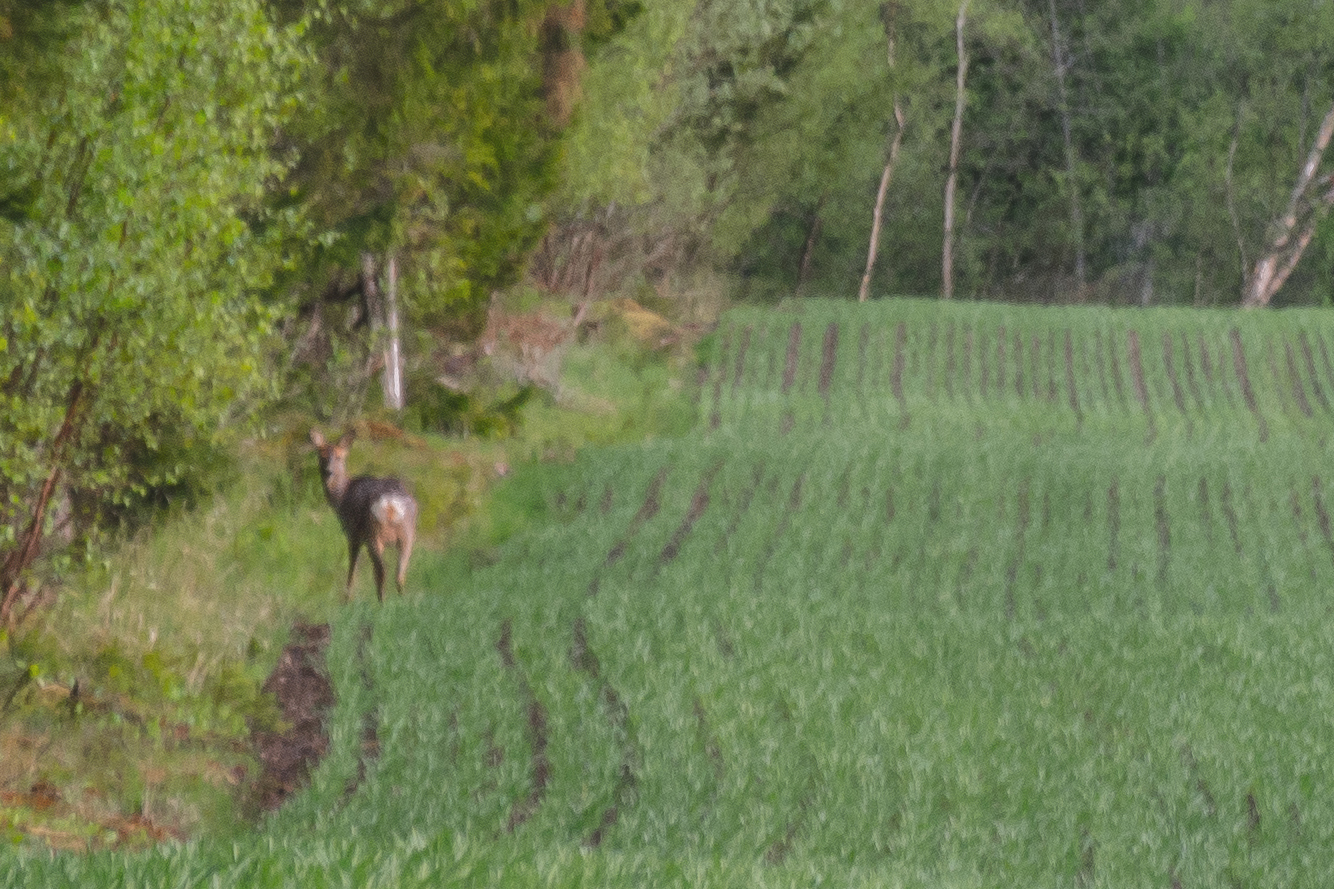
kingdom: Animalia
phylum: Chordata
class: Mammalia
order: Artiodactyla
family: Cervidae
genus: Capreolus
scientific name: Capreolus capreolus
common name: Western roe deer
